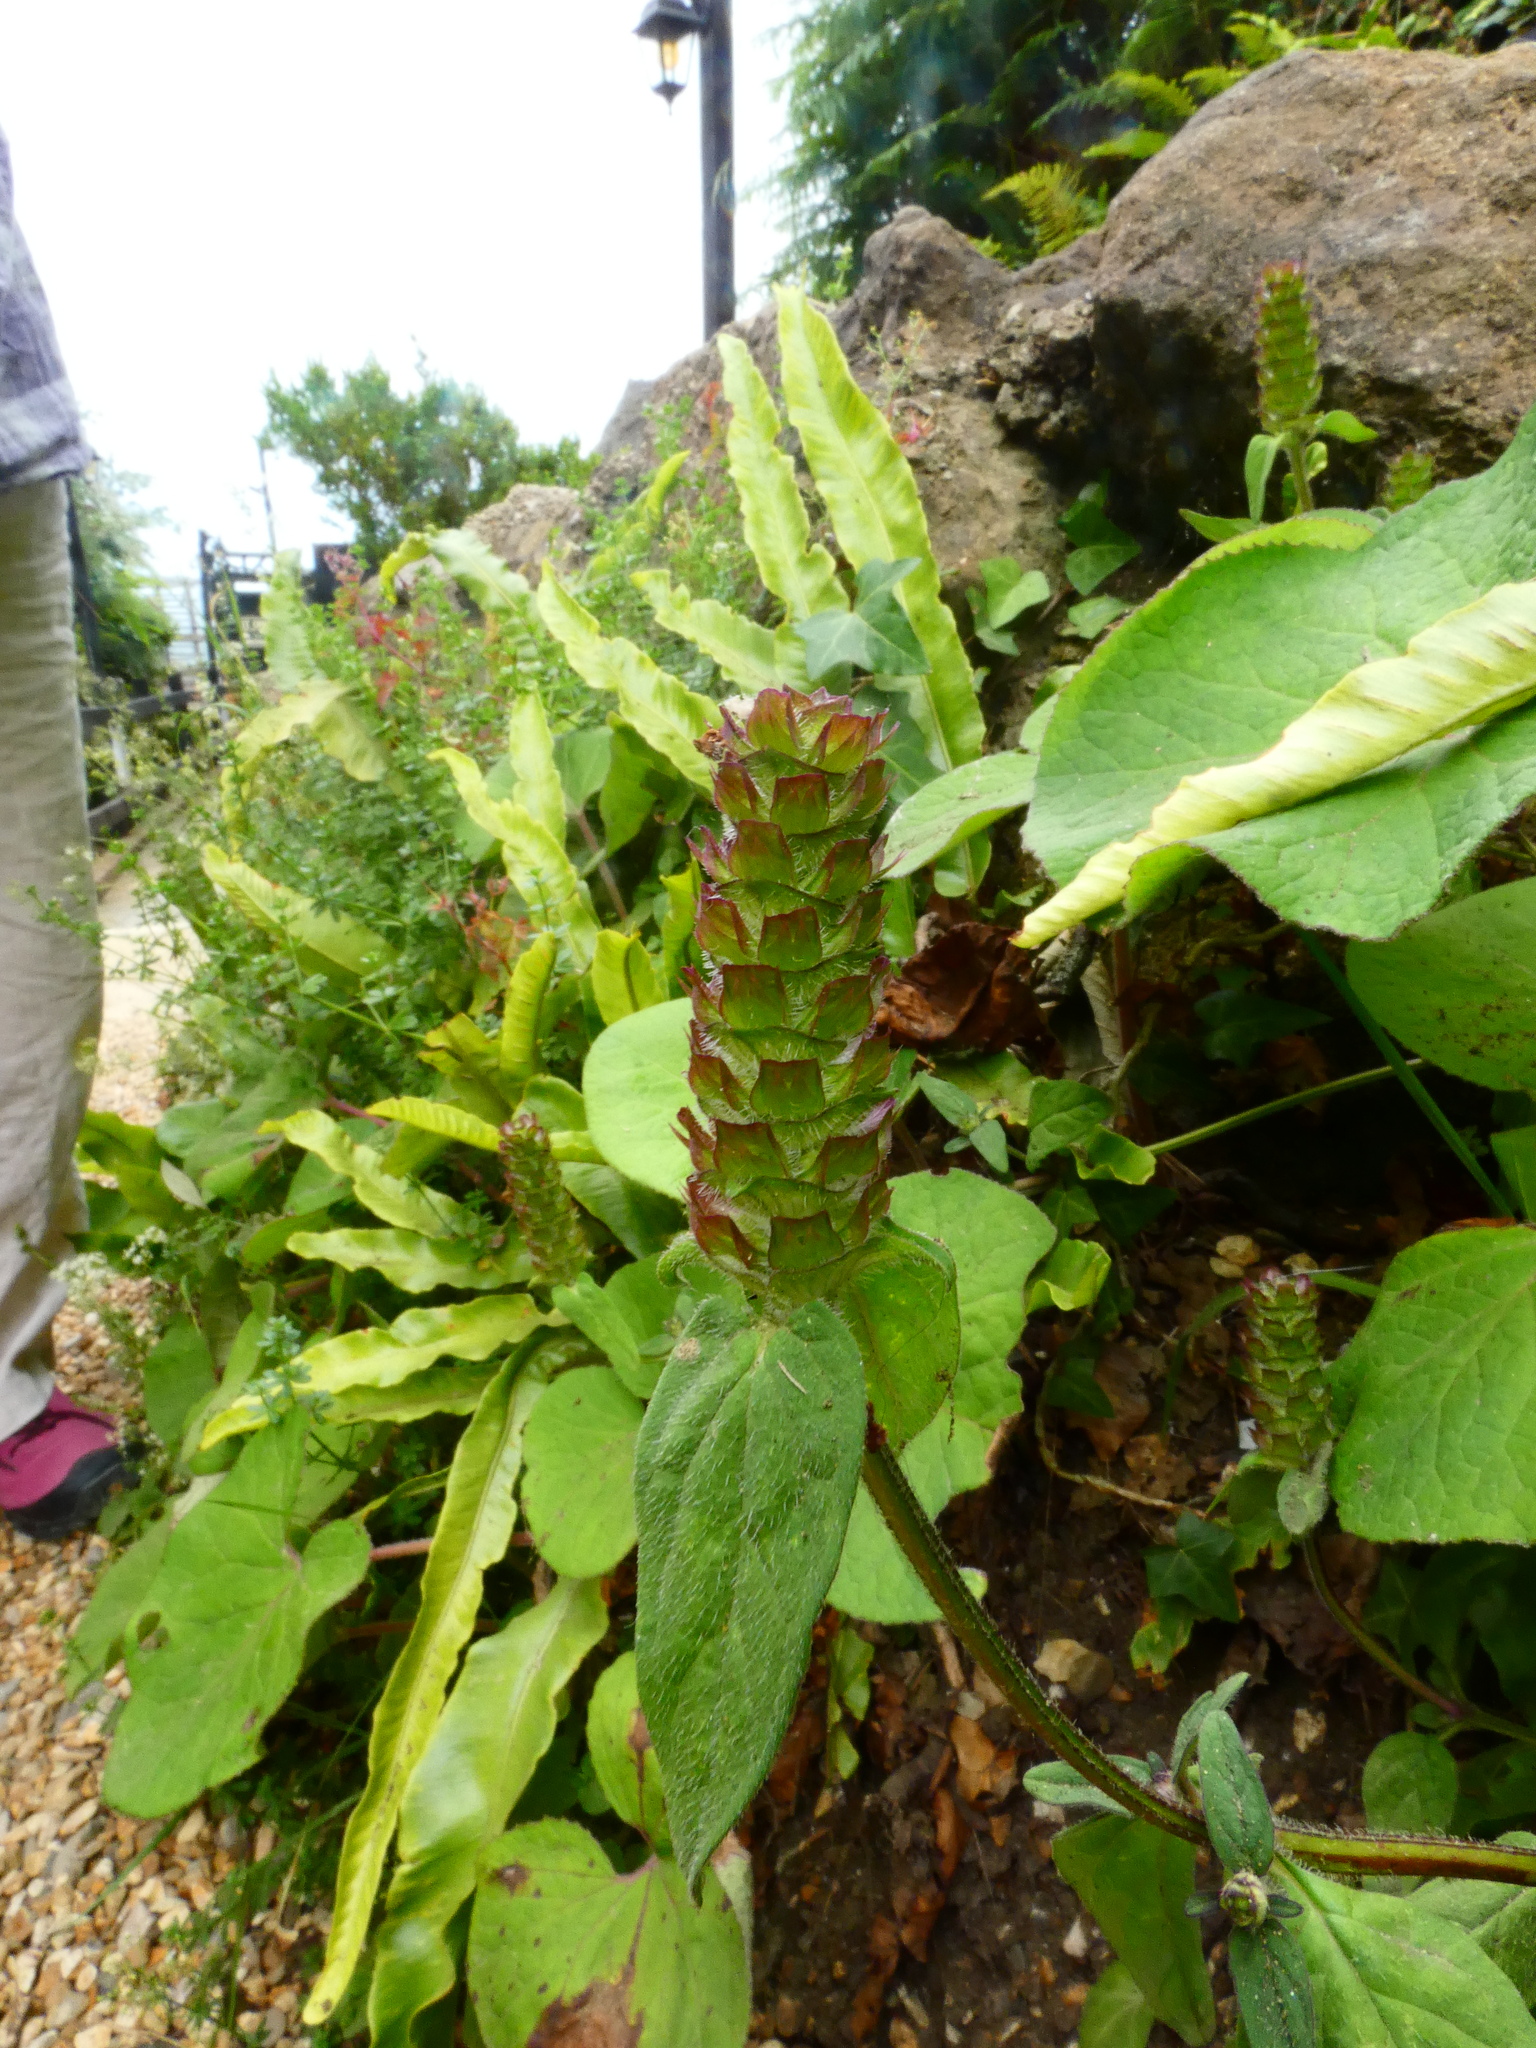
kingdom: Plantae
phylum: Tracheophyta
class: Magnoliopsida
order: Lamiales
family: Lamiaceae
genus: Prunella
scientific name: Prunella vulgaris
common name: Heal-all
